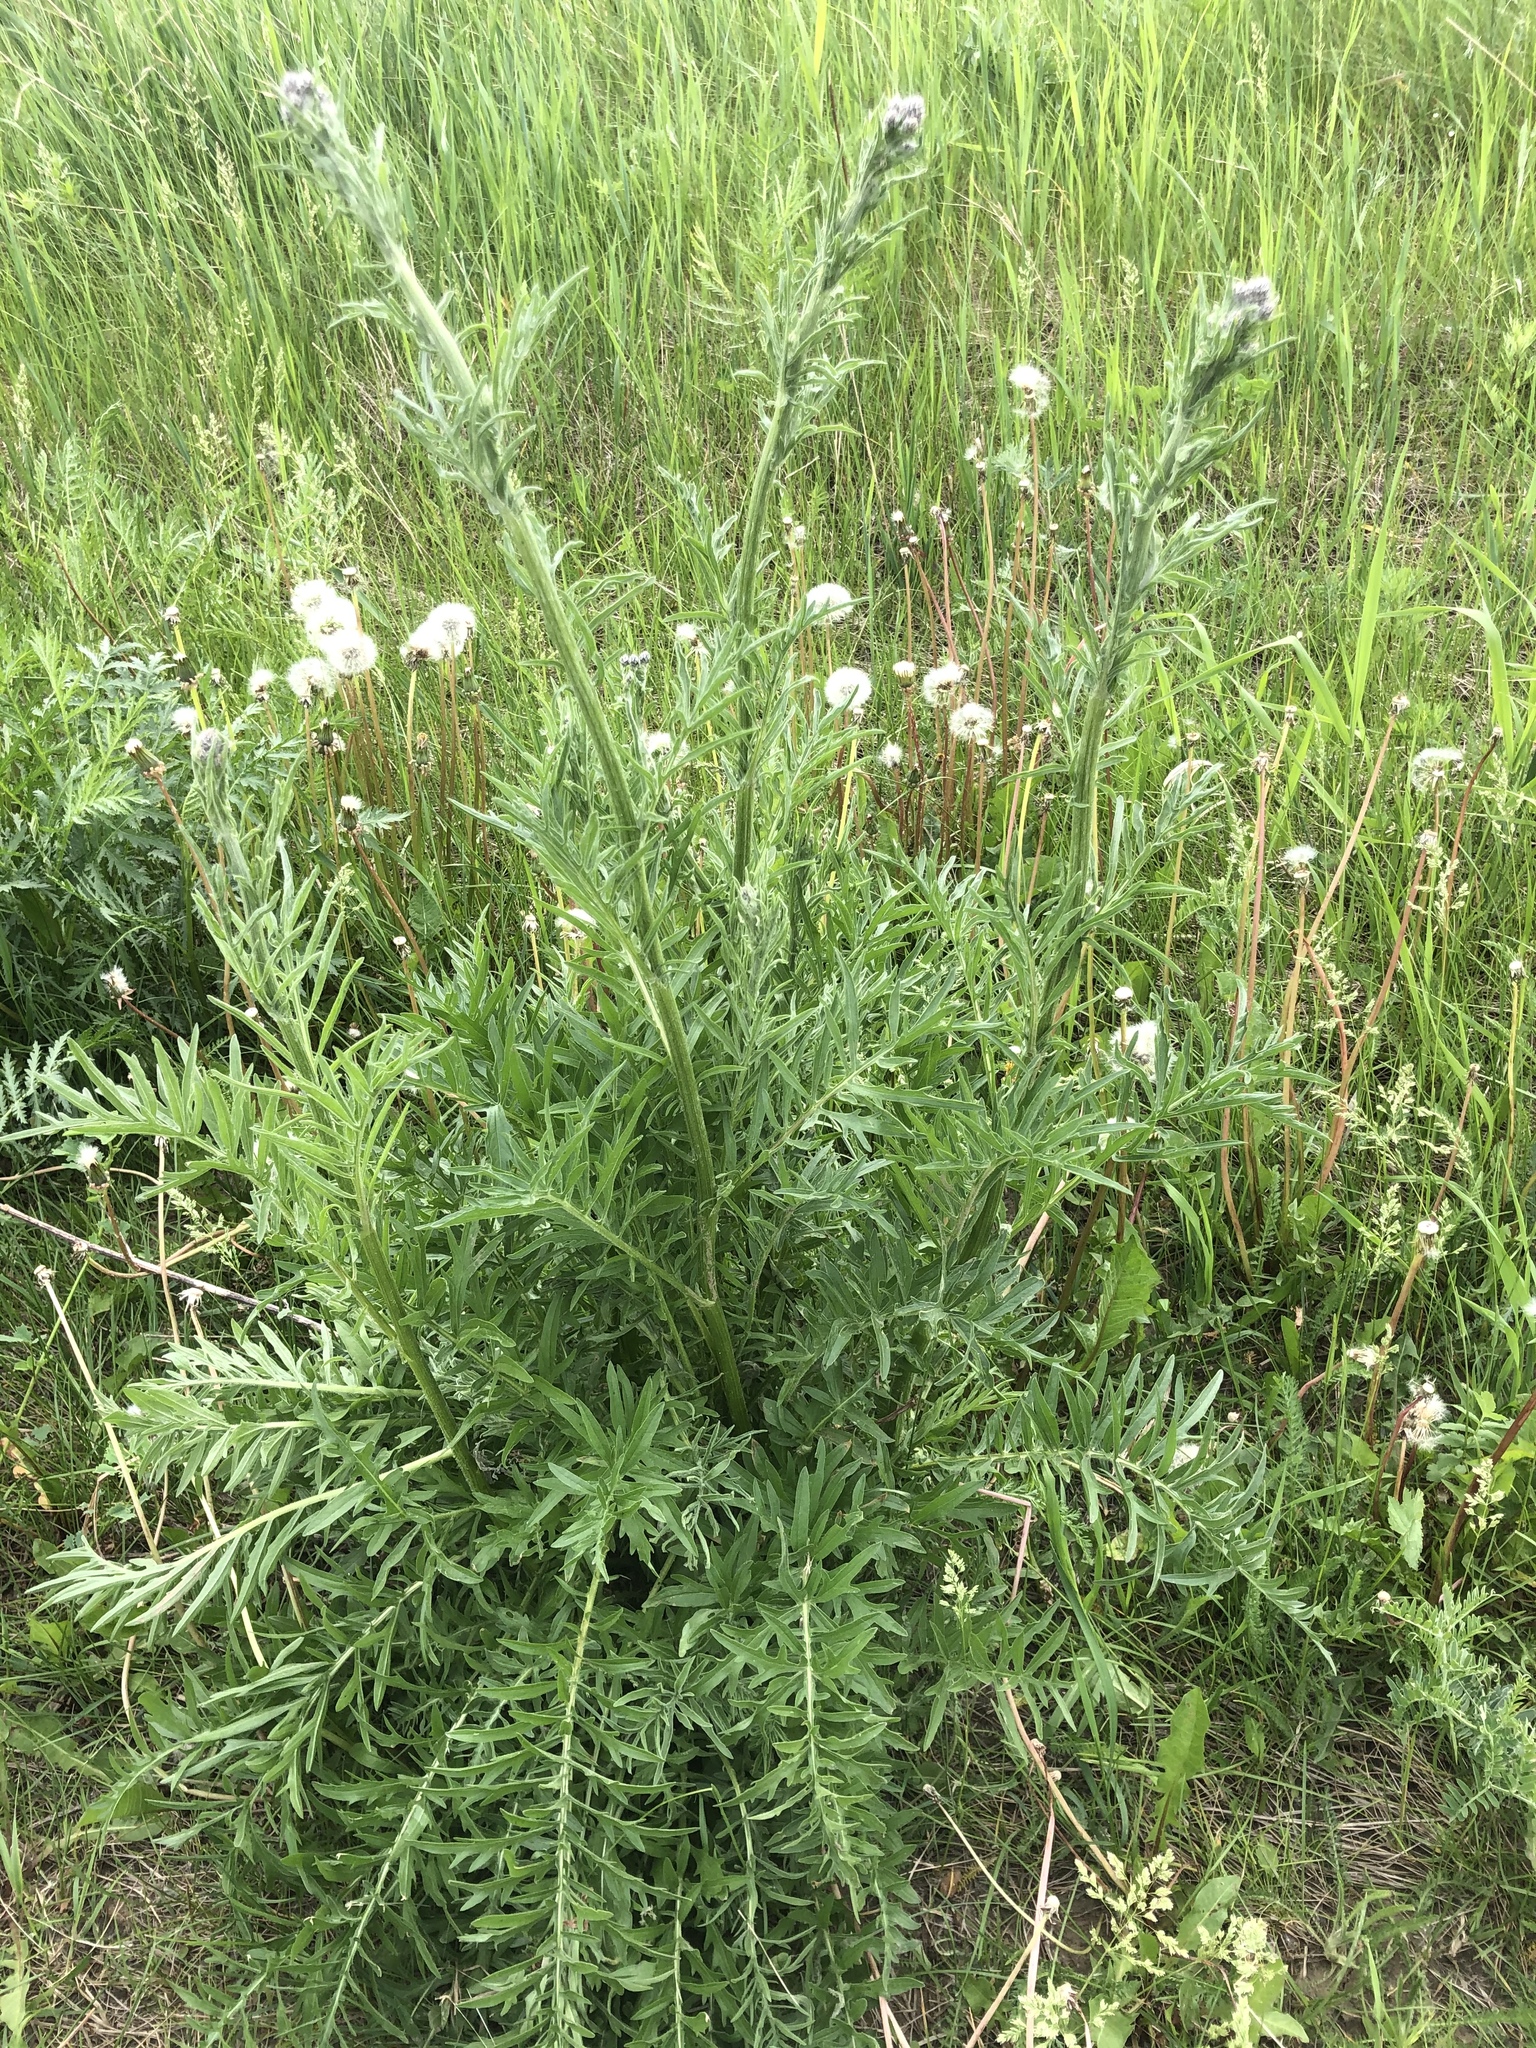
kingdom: Plantae
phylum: Tracheophyta
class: Magnoliopsida
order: Asterales
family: Asteraceae
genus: Centaurea
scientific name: Centaurea scabiosa
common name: Greater knapweed
